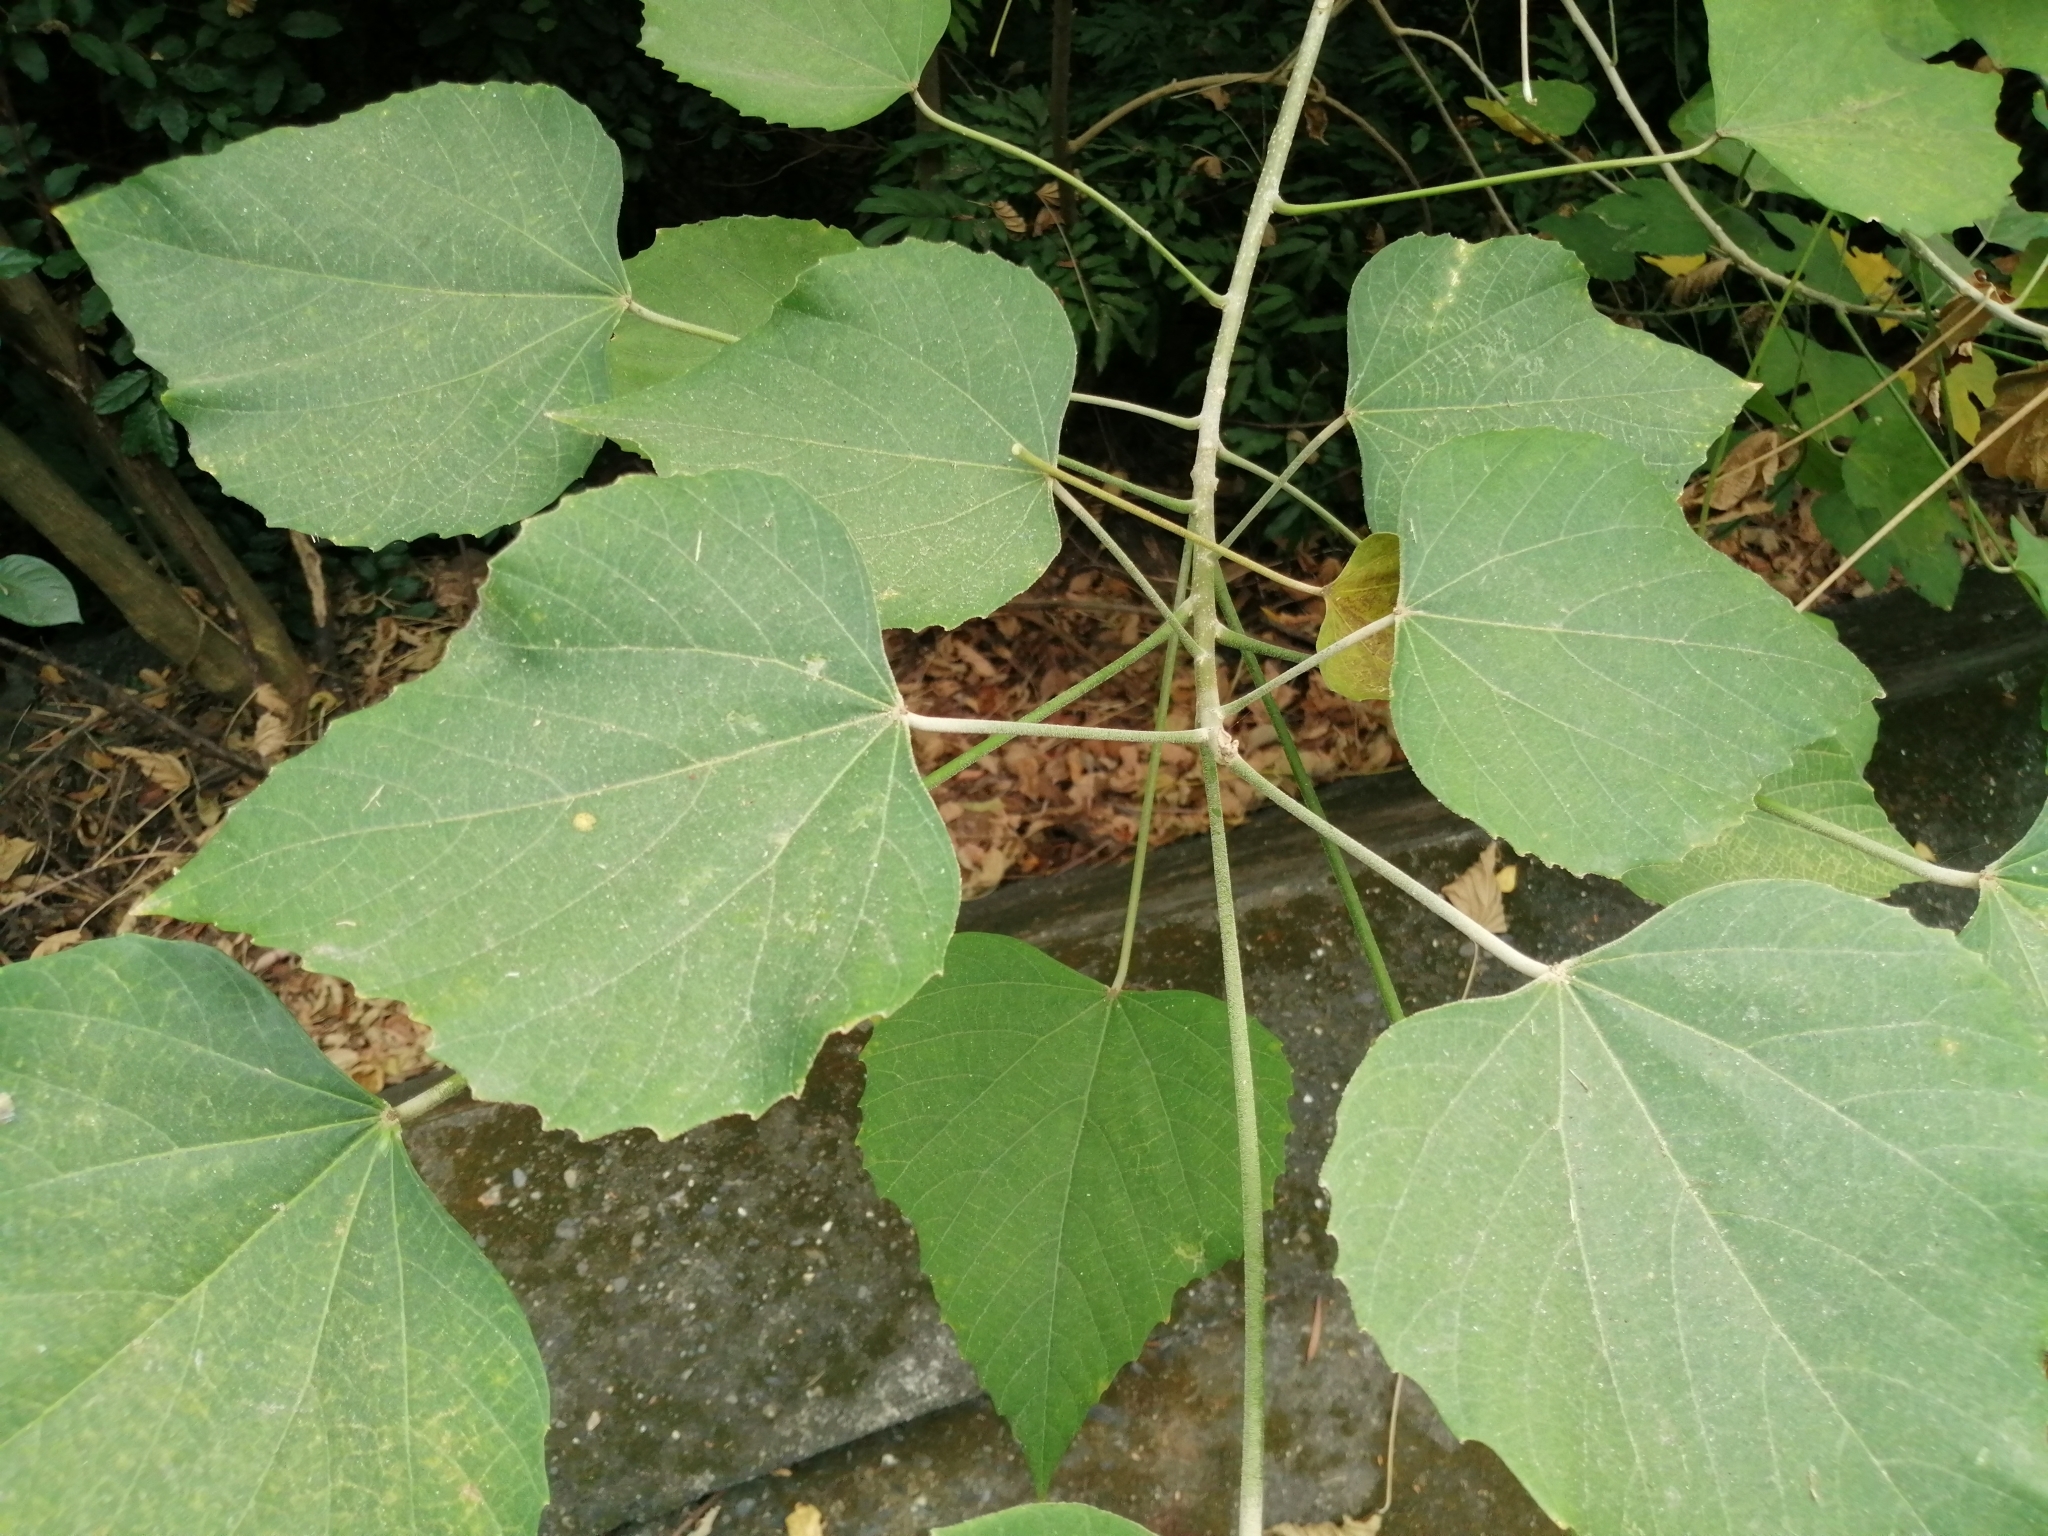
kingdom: Plantae
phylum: Tracheophyta
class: Magnoliopsida
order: Malpighiales
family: Euphorbiaceae
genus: Melanolepis
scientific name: Melanolepis multiglandulosa
